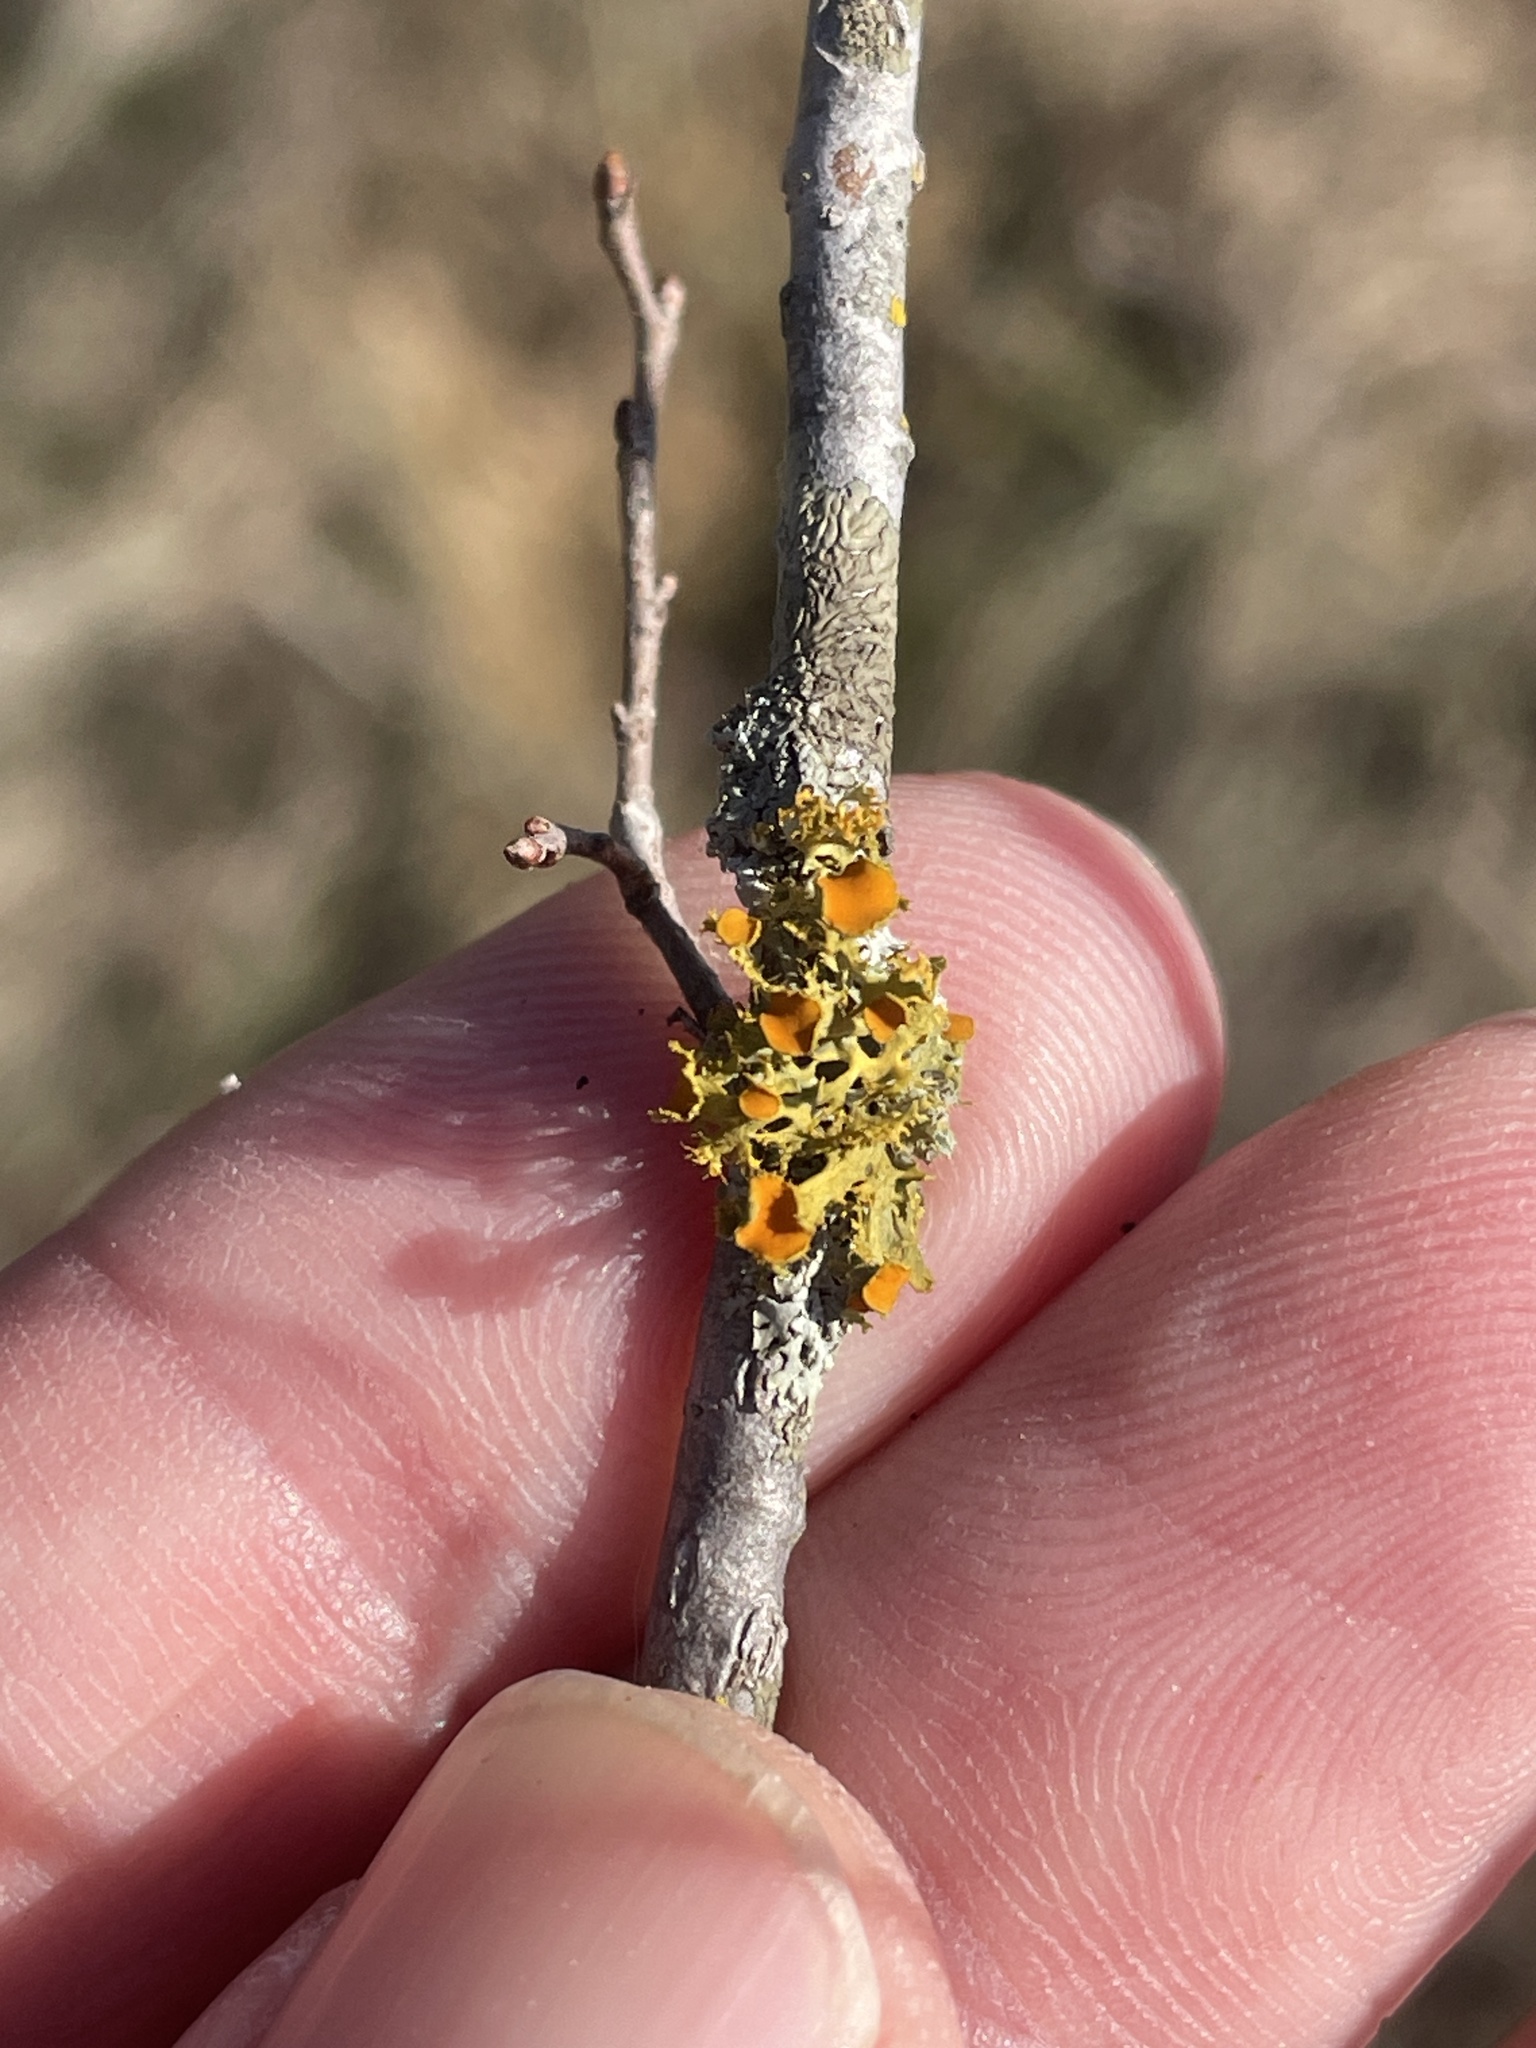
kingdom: Fungi
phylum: Ascomycota
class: Lecanoromycetes
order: Teloschistales
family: Teloschistaceae
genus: Niorma
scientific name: Niorma chrysophthalma
